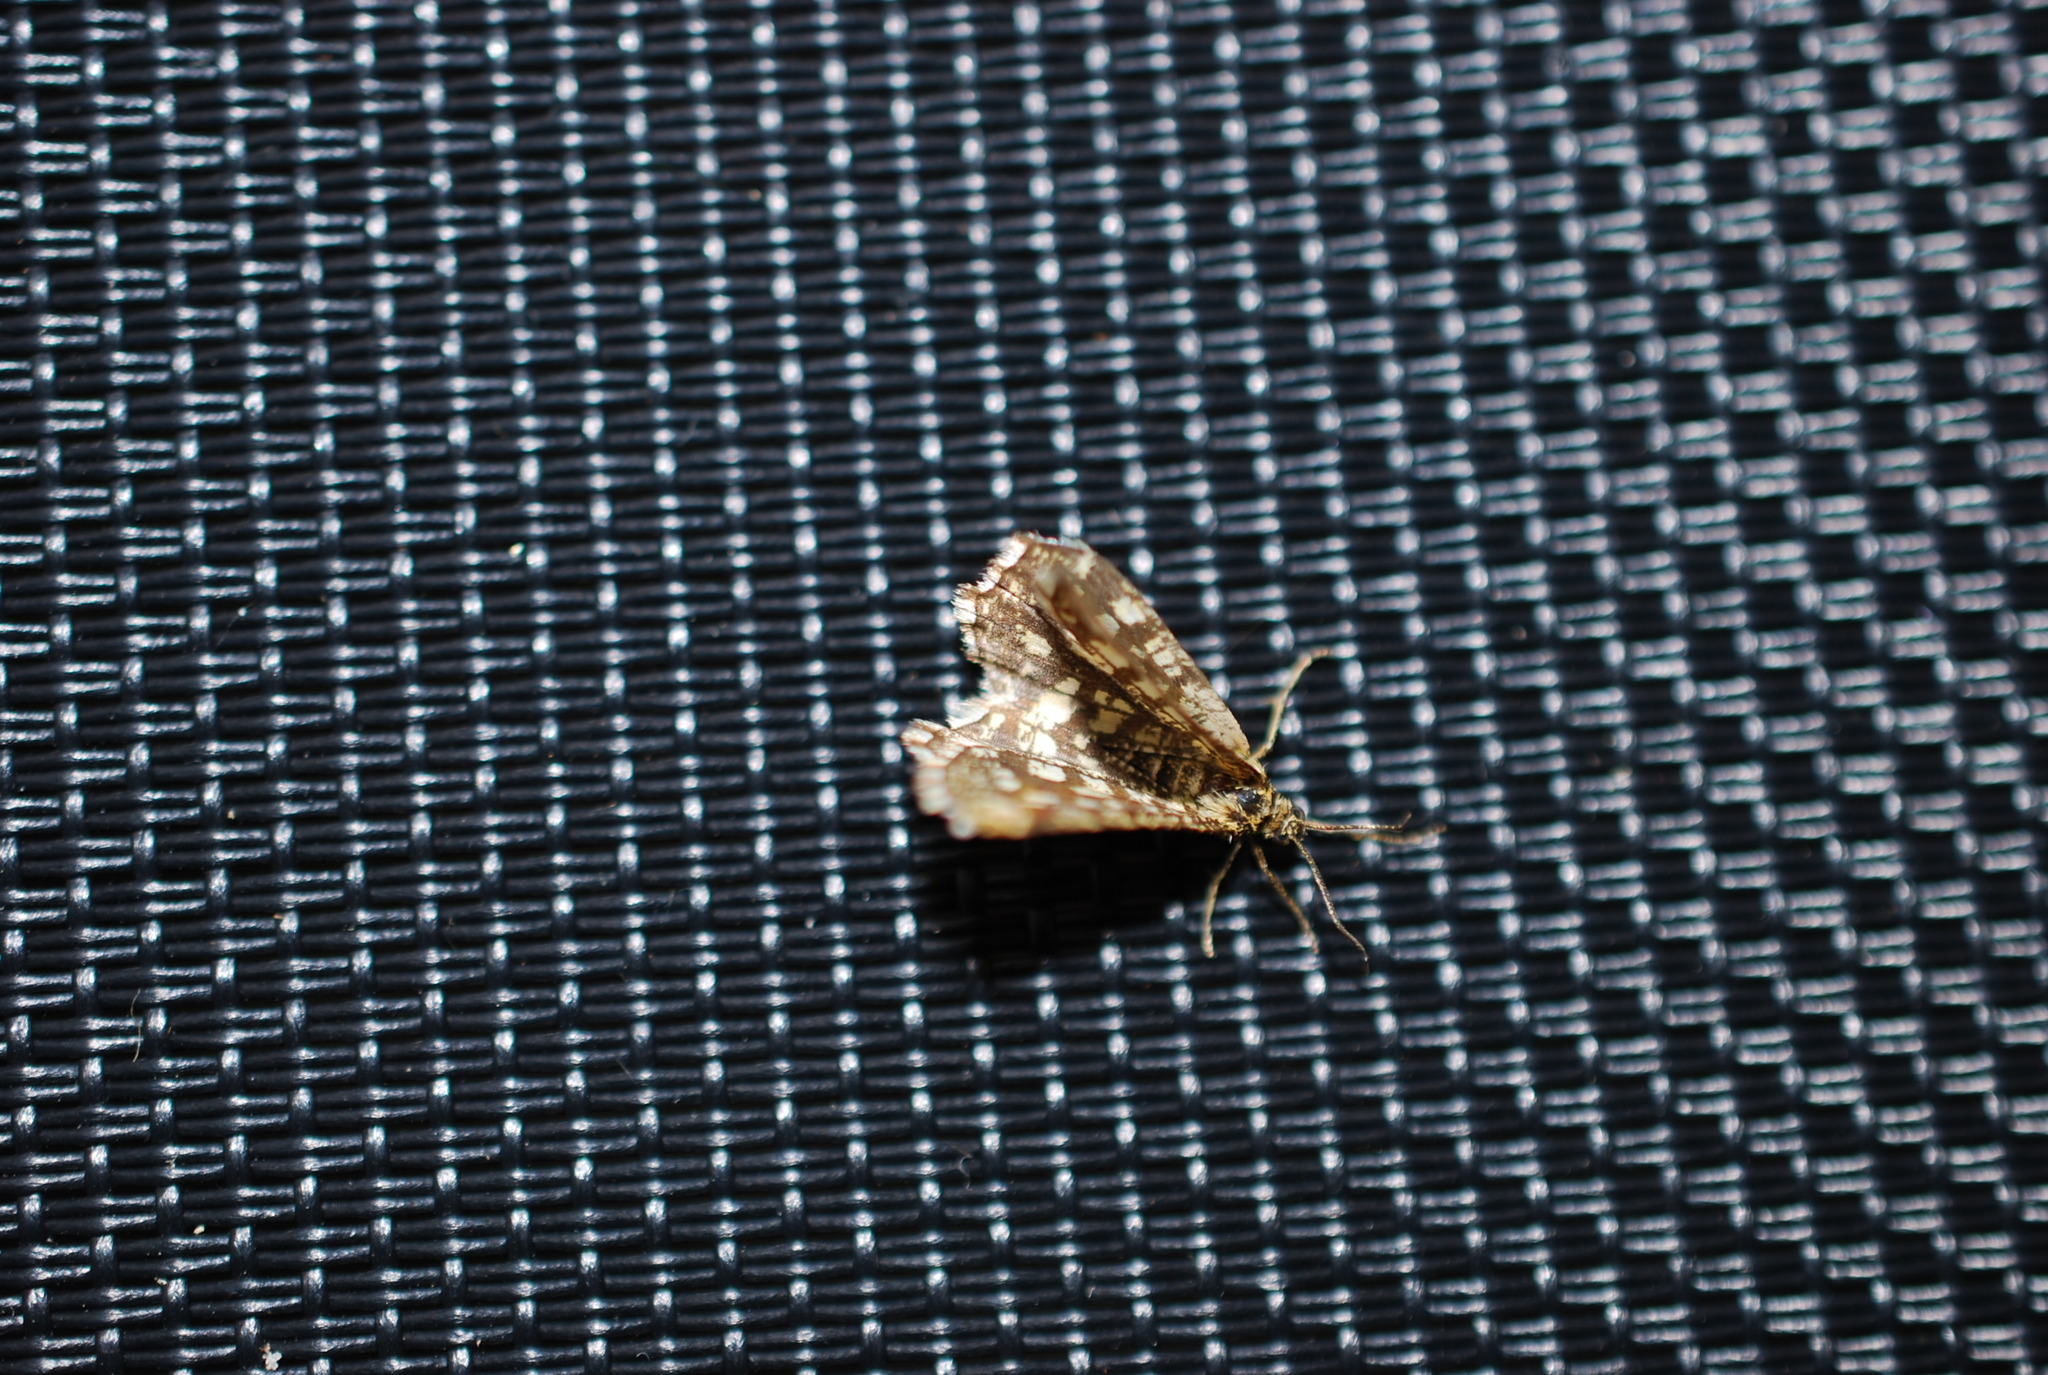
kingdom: Animalia
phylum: Arthropoda
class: Insecta
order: Lepidoptera
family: Geometridae
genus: Chiasmia
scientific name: Chiasmia clathrata
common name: Latticed heath
